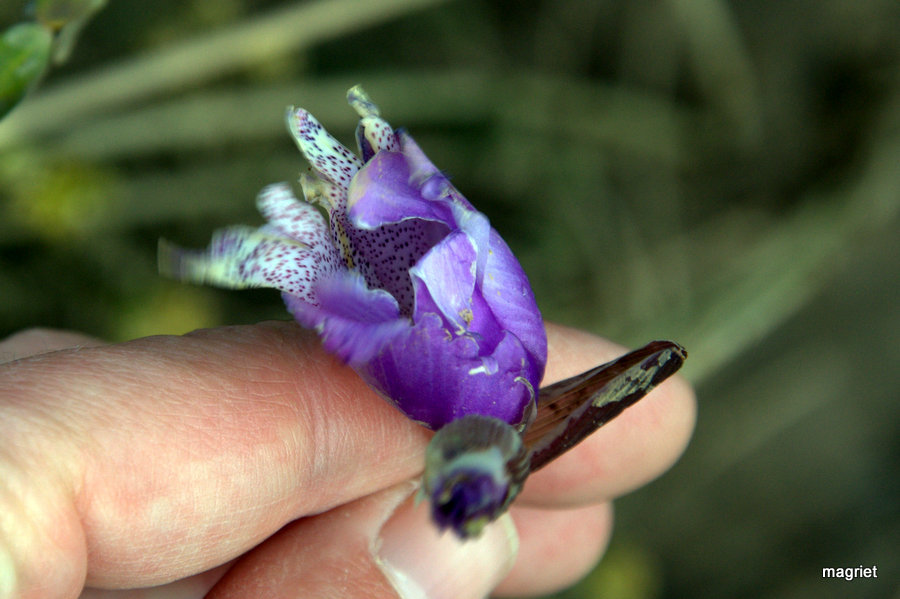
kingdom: Plantae
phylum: Tracheophyta
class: Liliopsida
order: Asparagales
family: Iridaceae
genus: Gladiolus
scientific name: Gladiolus bullatus
